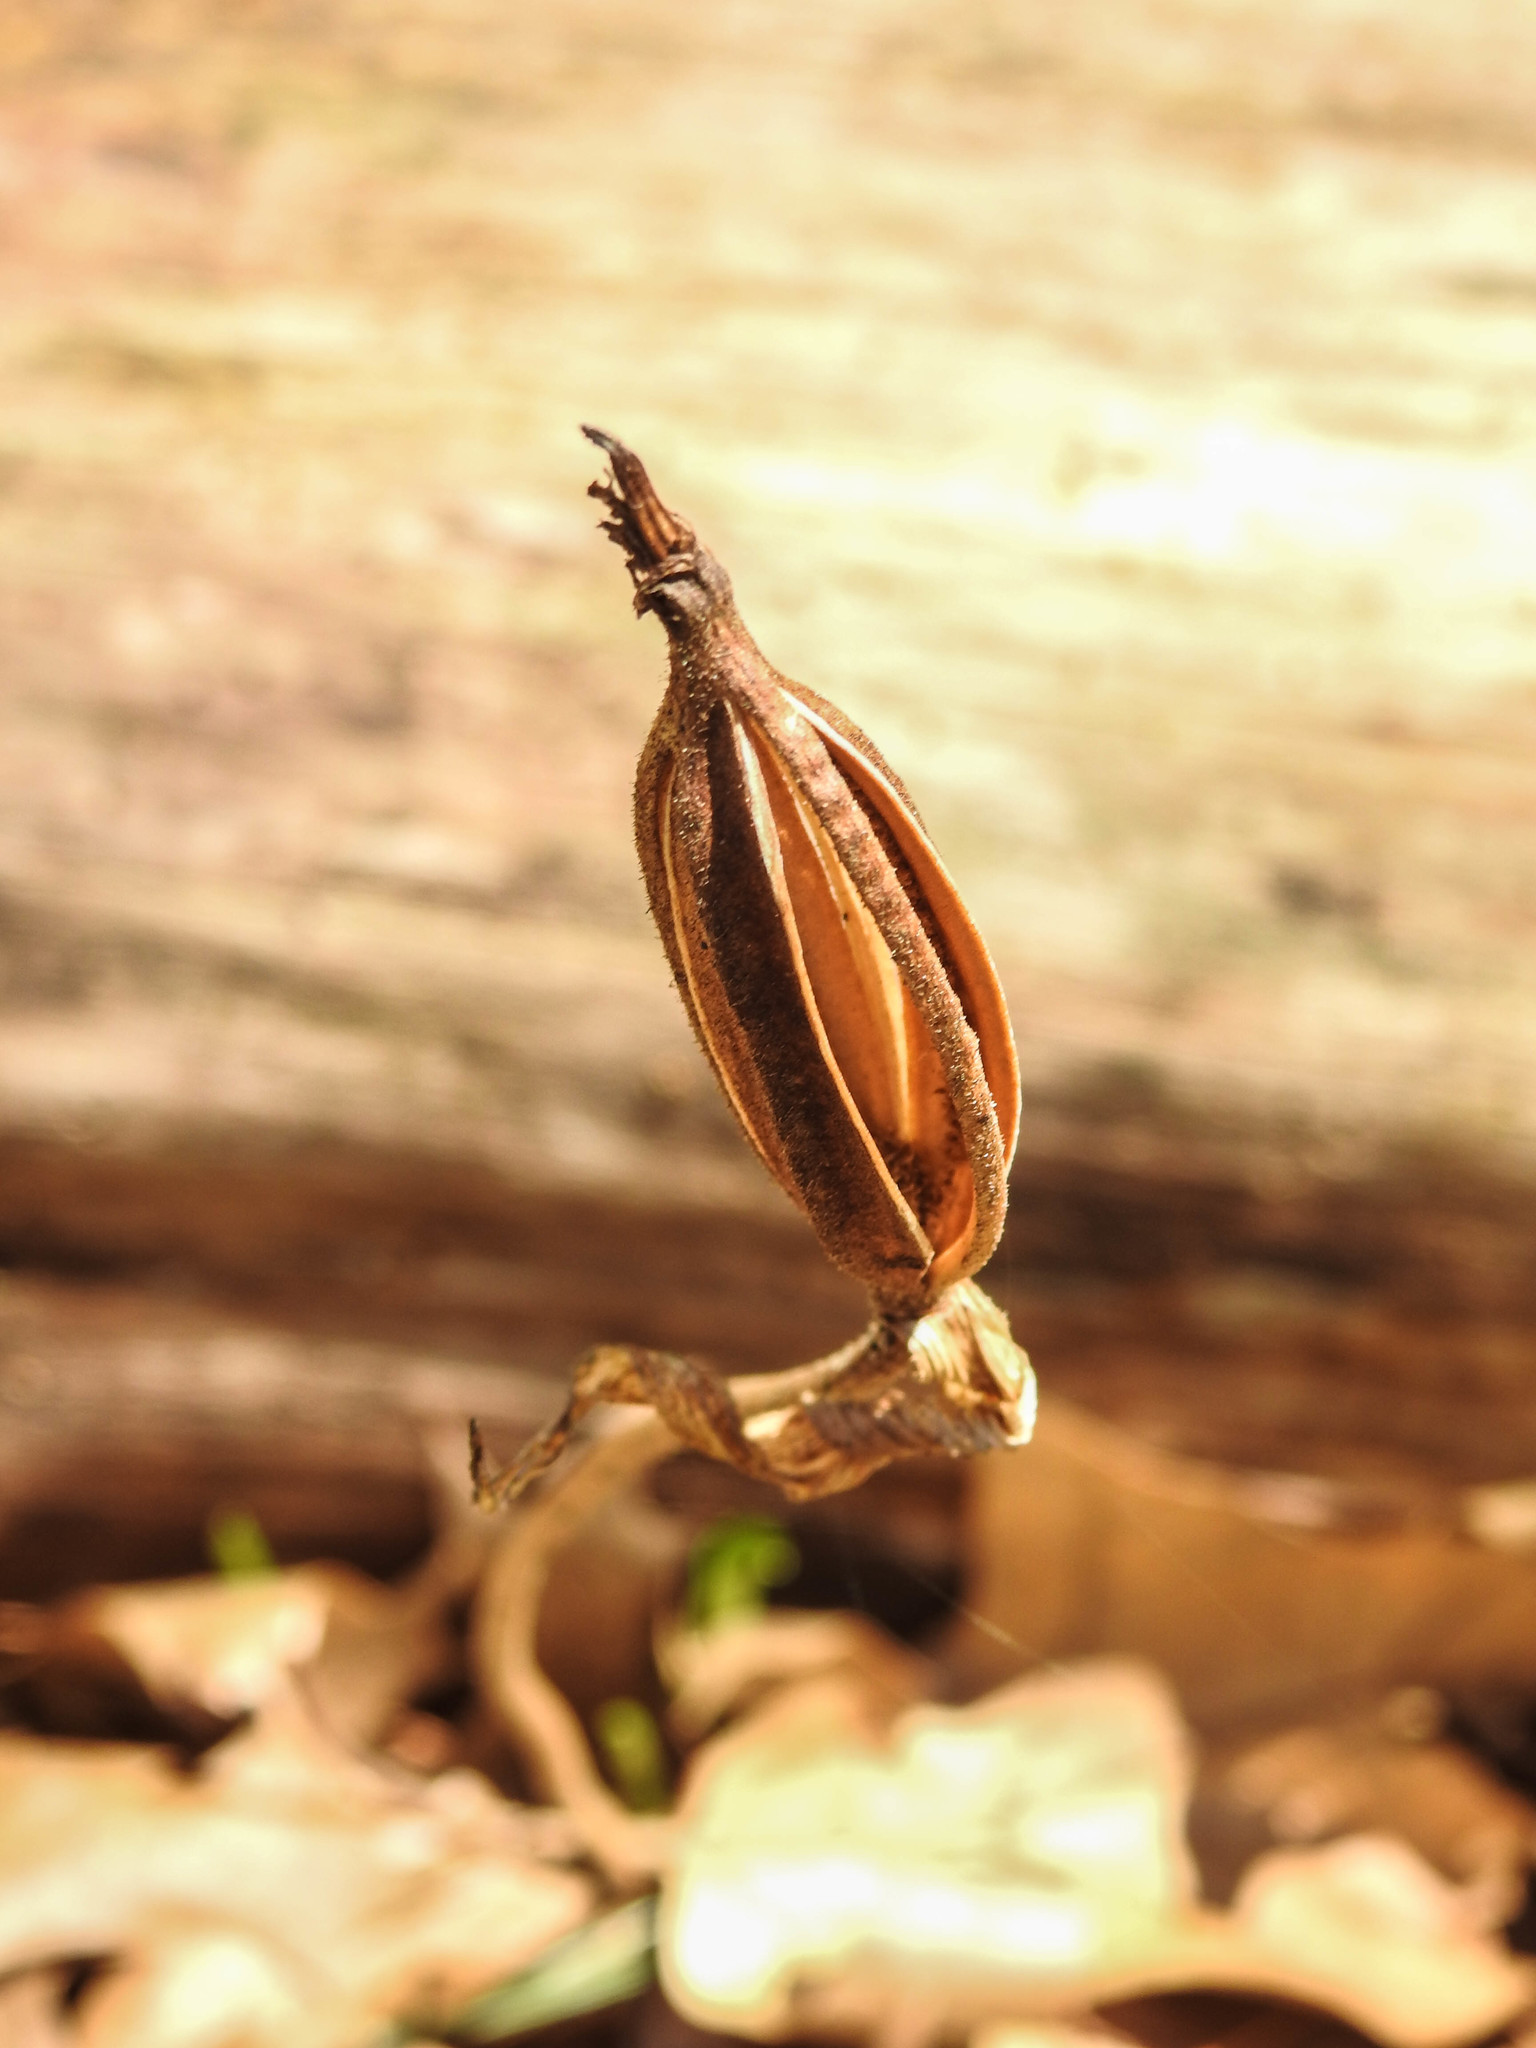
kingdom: Plantae
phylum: Tracheophyta
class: Liliopsida
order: Asparagales
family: Orchidaceae
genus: Cypripedium
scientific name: Cypripedium acaule
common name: Pink lady's-slipper
